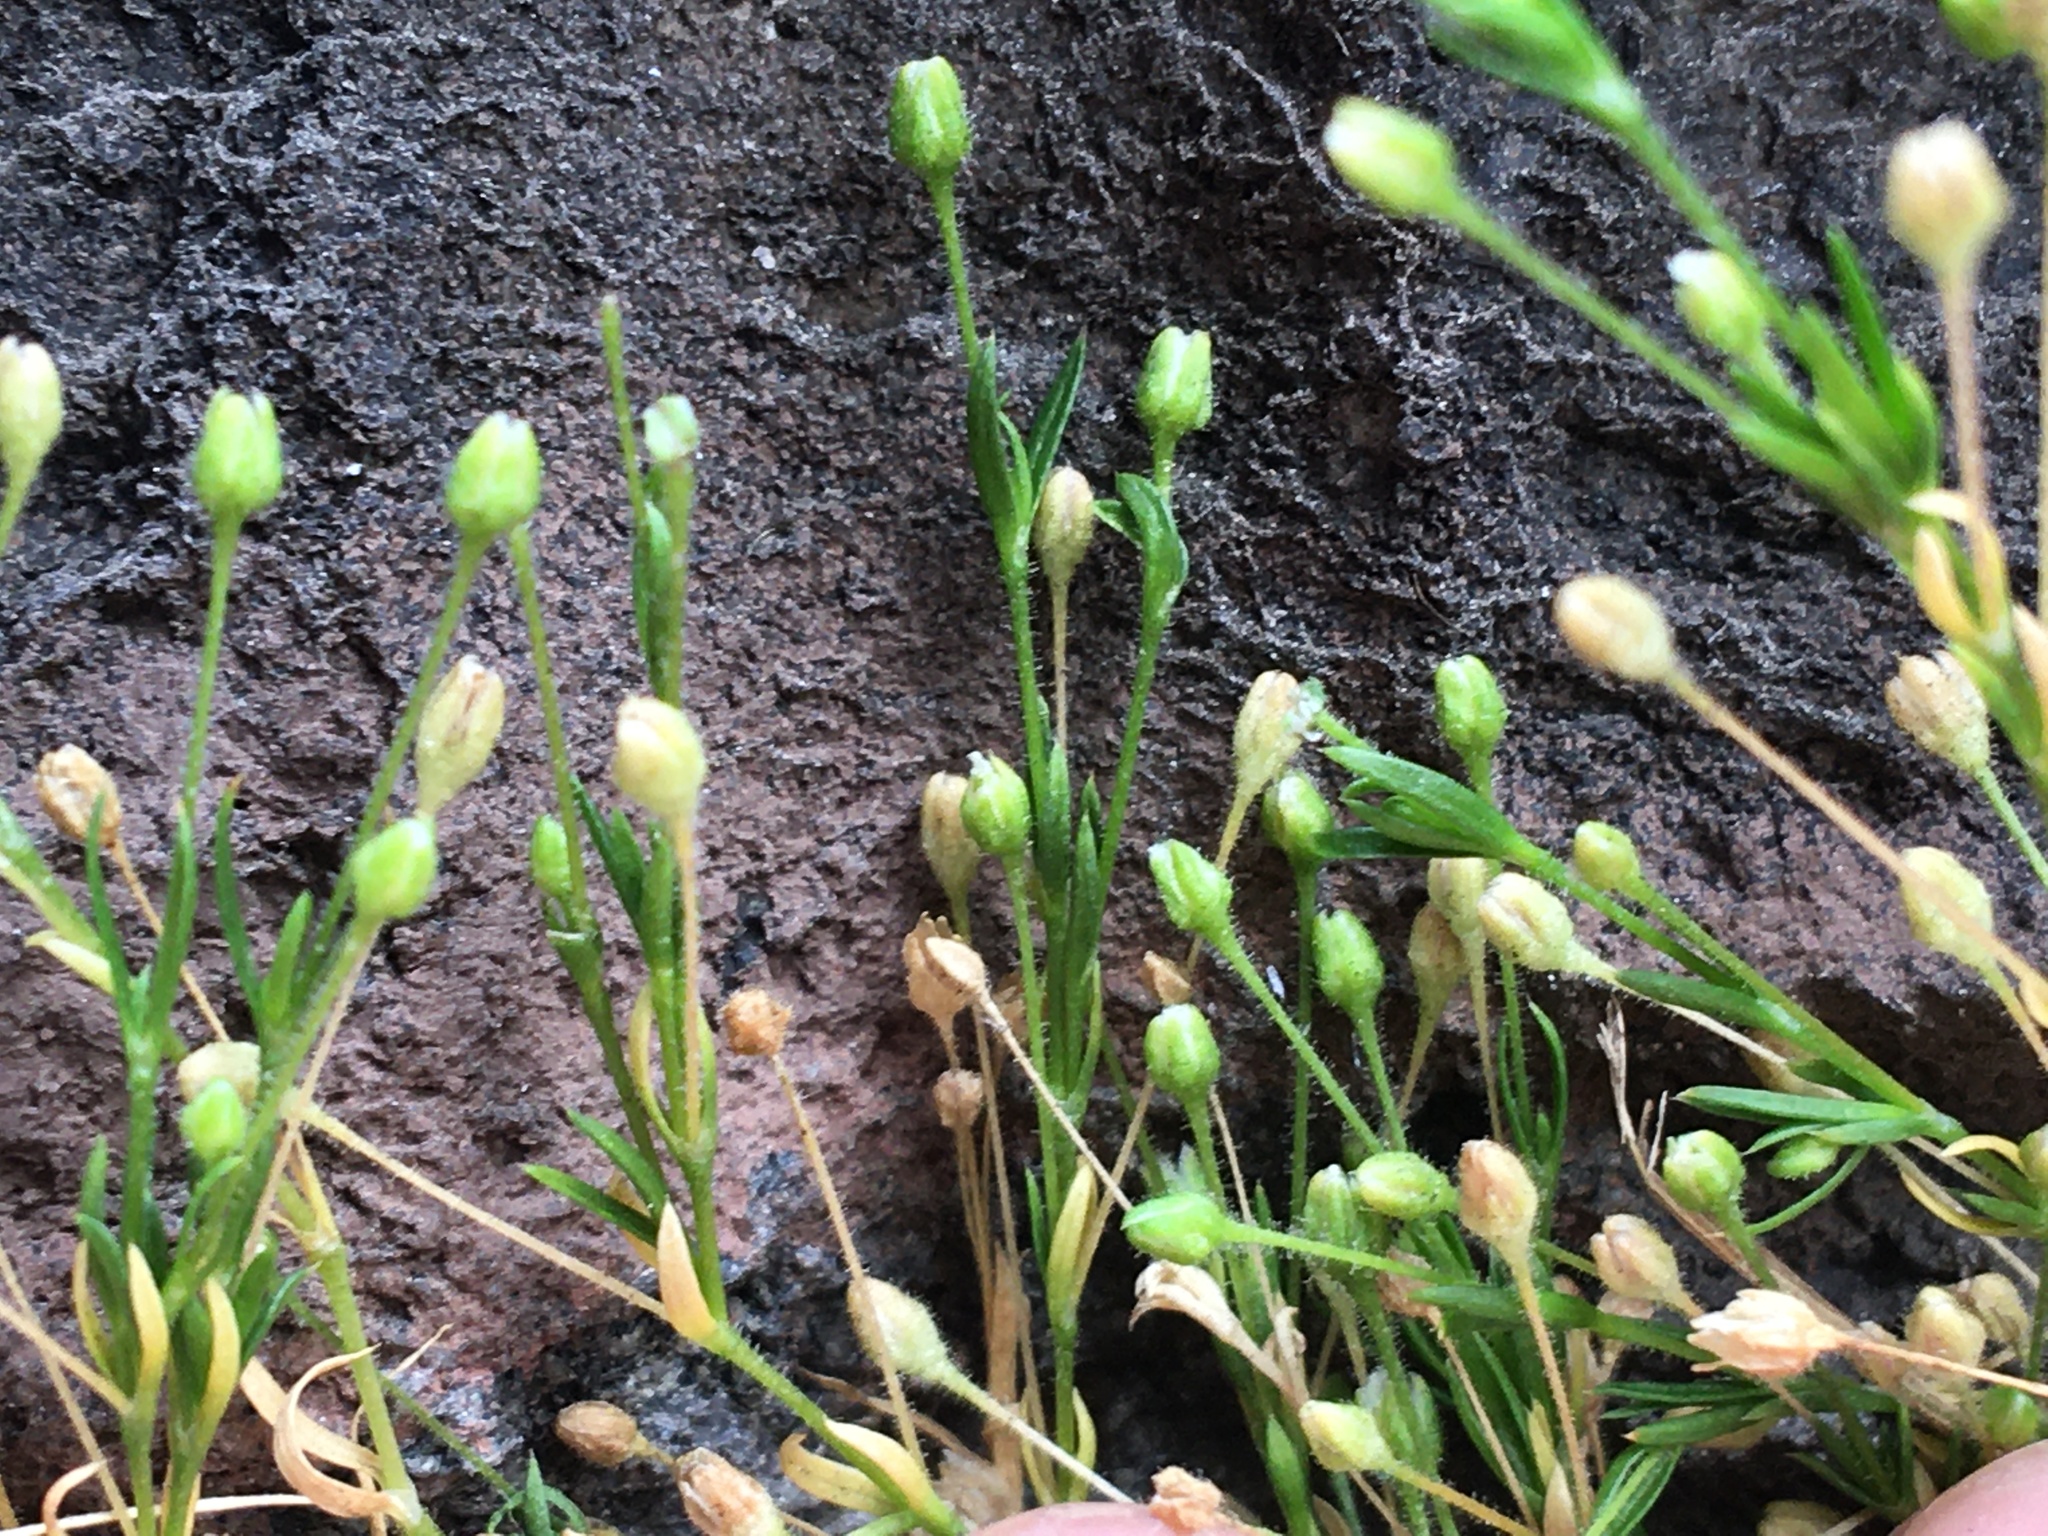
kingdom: Plantae
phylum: Tracheophyta
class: Magnoliopsida
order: Caryophyllales
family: Caryophyllaceae
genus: Sagina
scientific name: Sagina japonica
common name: Japanese pearlwort
